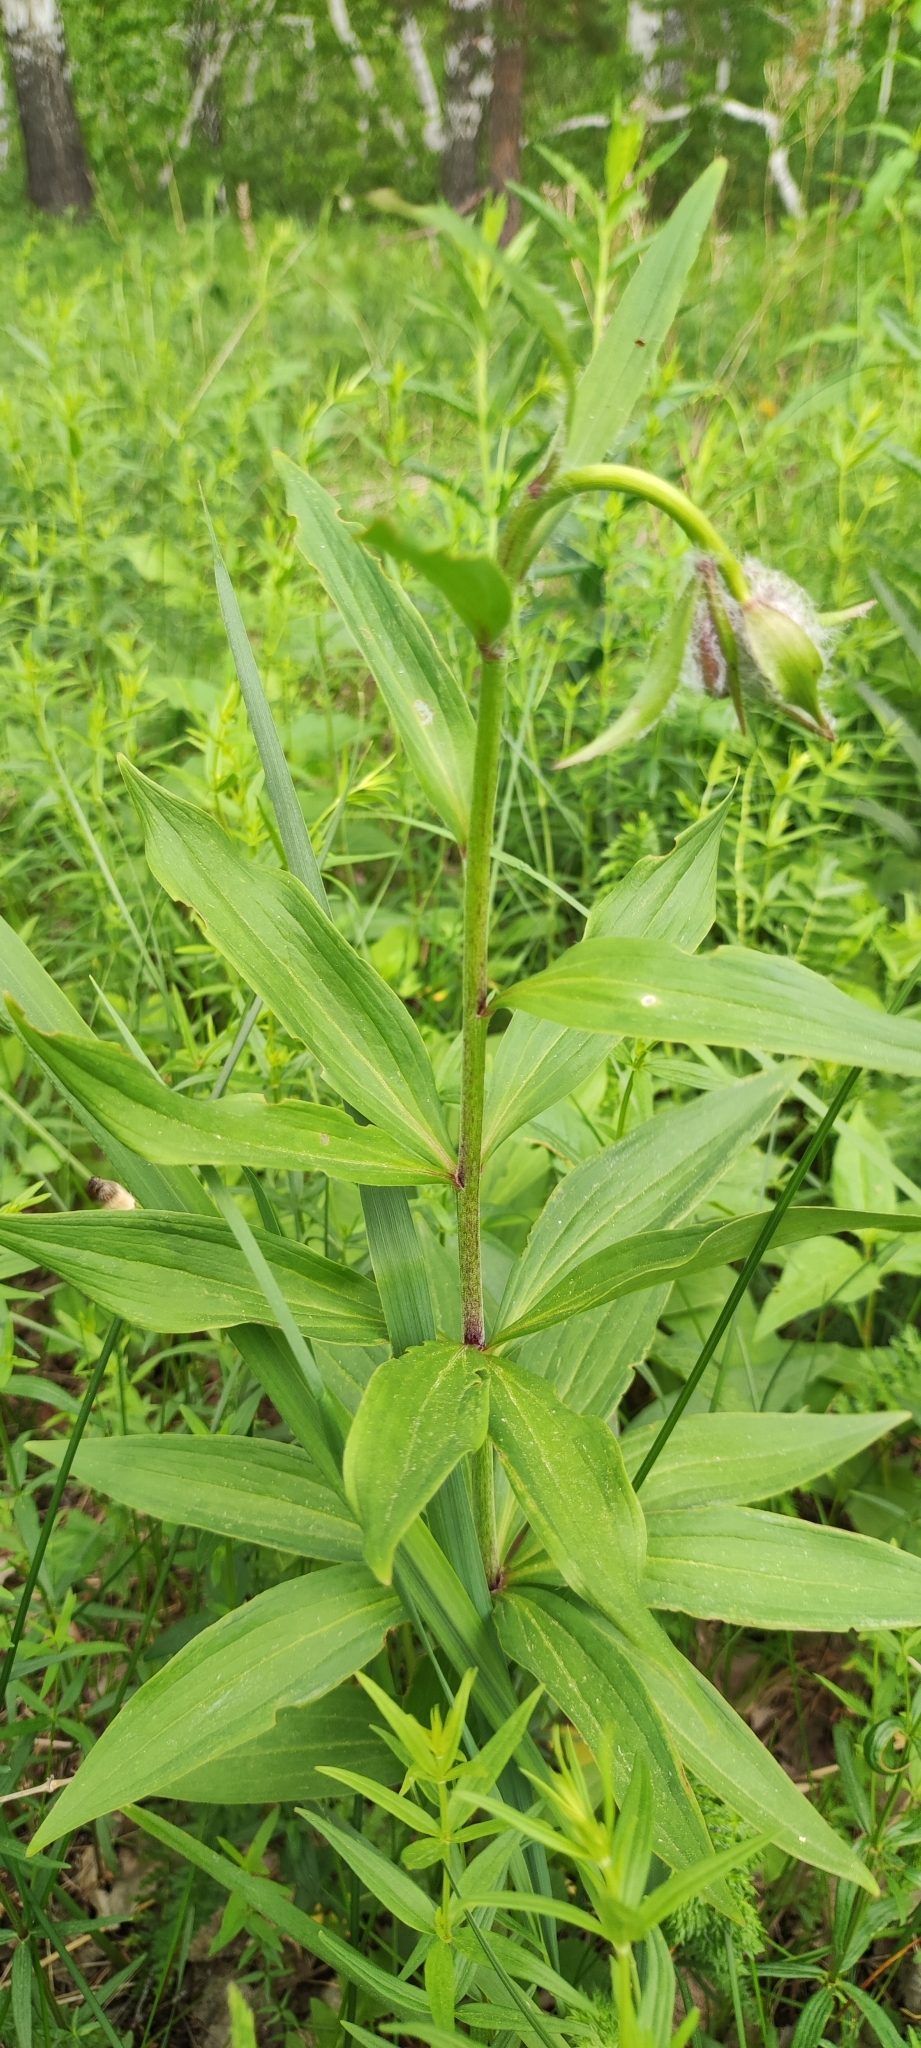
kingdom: Plantae
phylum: Tracheophyta
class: Liliopsida
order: Liliales
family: Liliaceae
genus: Lilium
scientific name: Lilium martagon
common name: Martagon lily
